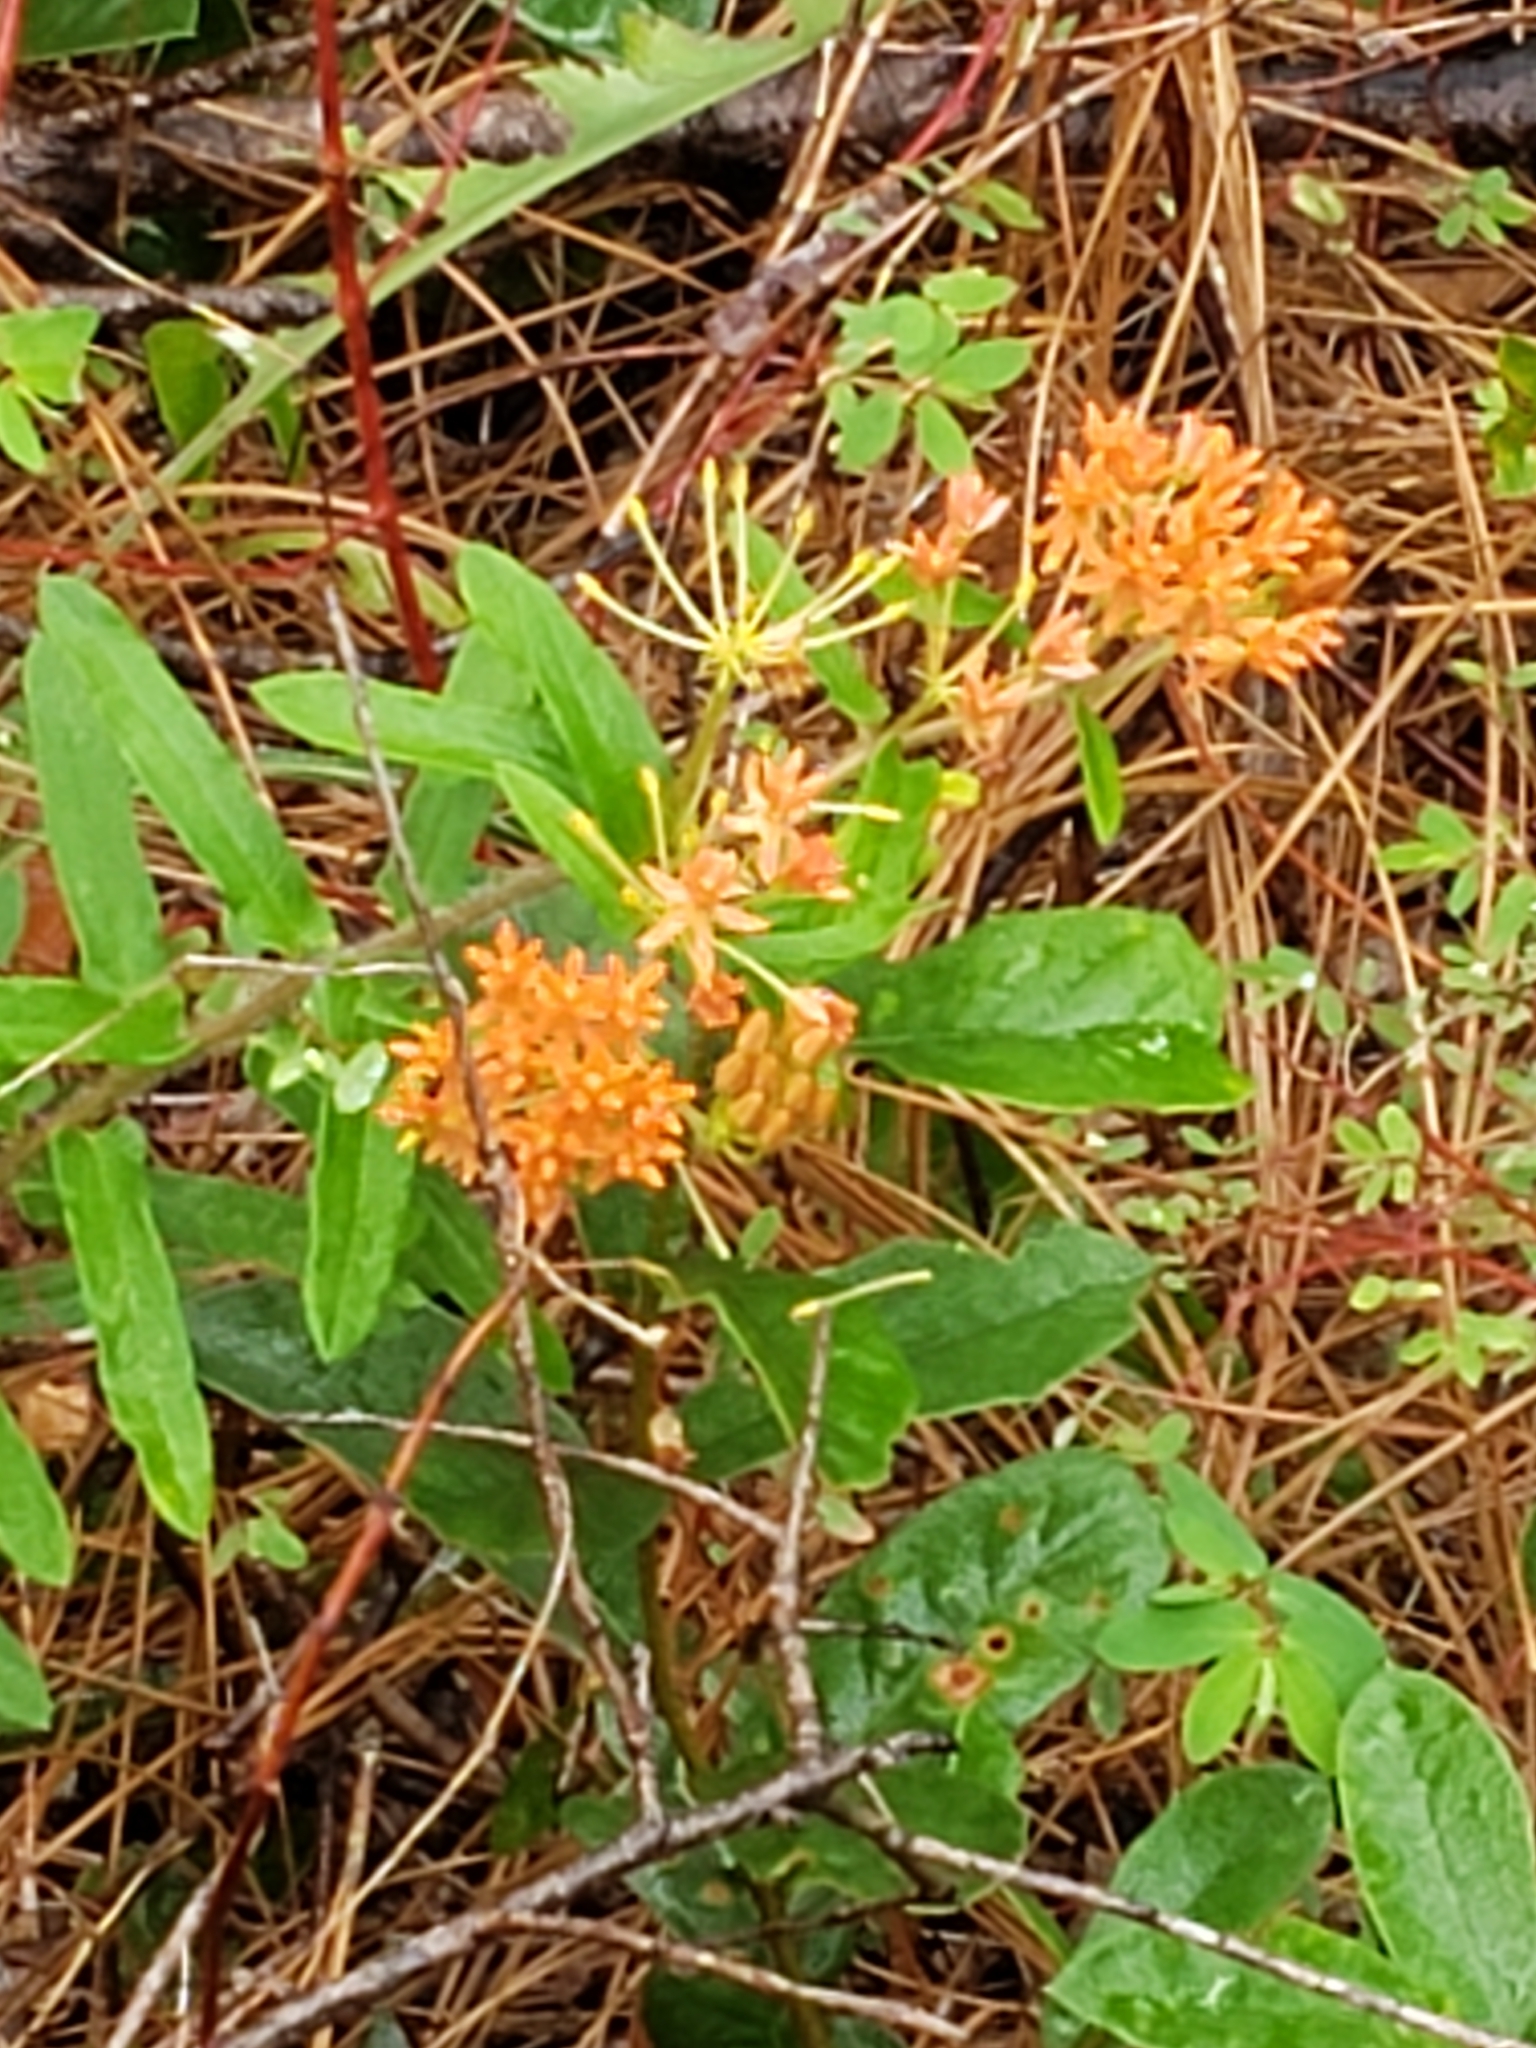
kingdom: Plantae
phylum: Tracheophyta
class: Magnoliopsida
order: Gentianales
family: Apocynaceae
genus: Asclepias
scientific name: Asclepias tuberosa
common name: Butterfly milkweed
